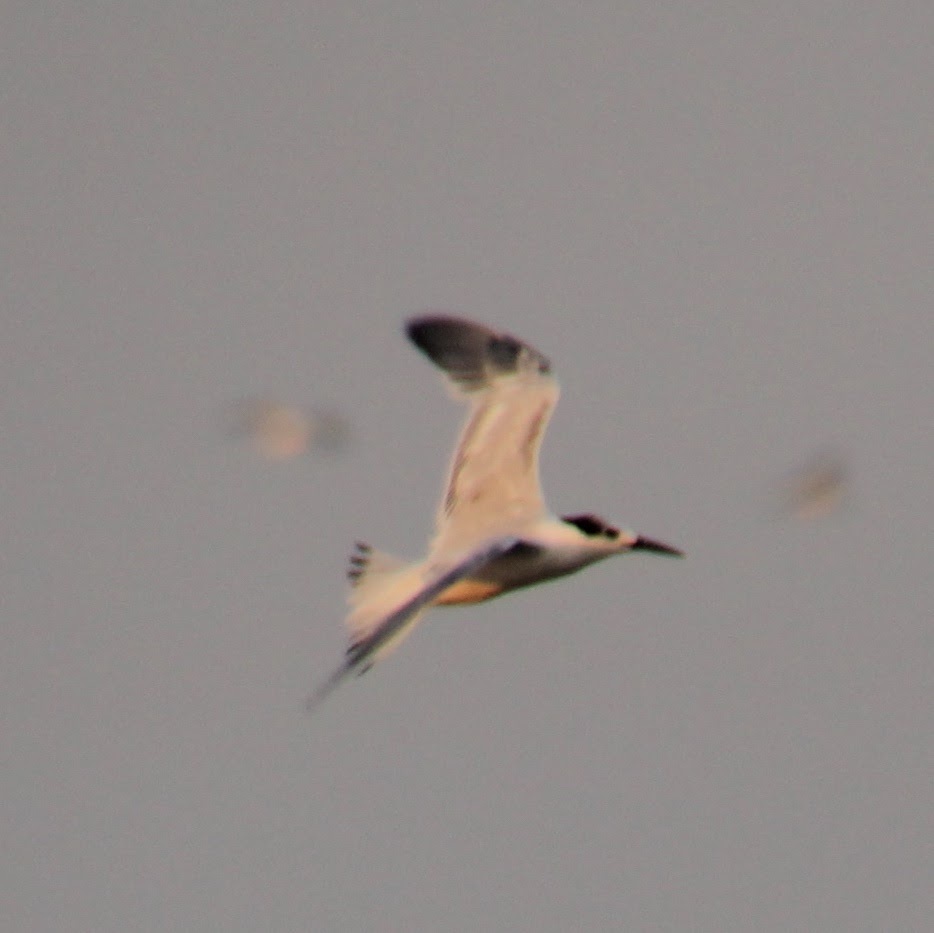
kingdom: Animalia
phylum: Chordata
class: Aves
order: Charadriiformes
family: Laridae
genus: Thalasseus
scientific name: Thalasseus sandvicensis
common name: Sandwich tern
